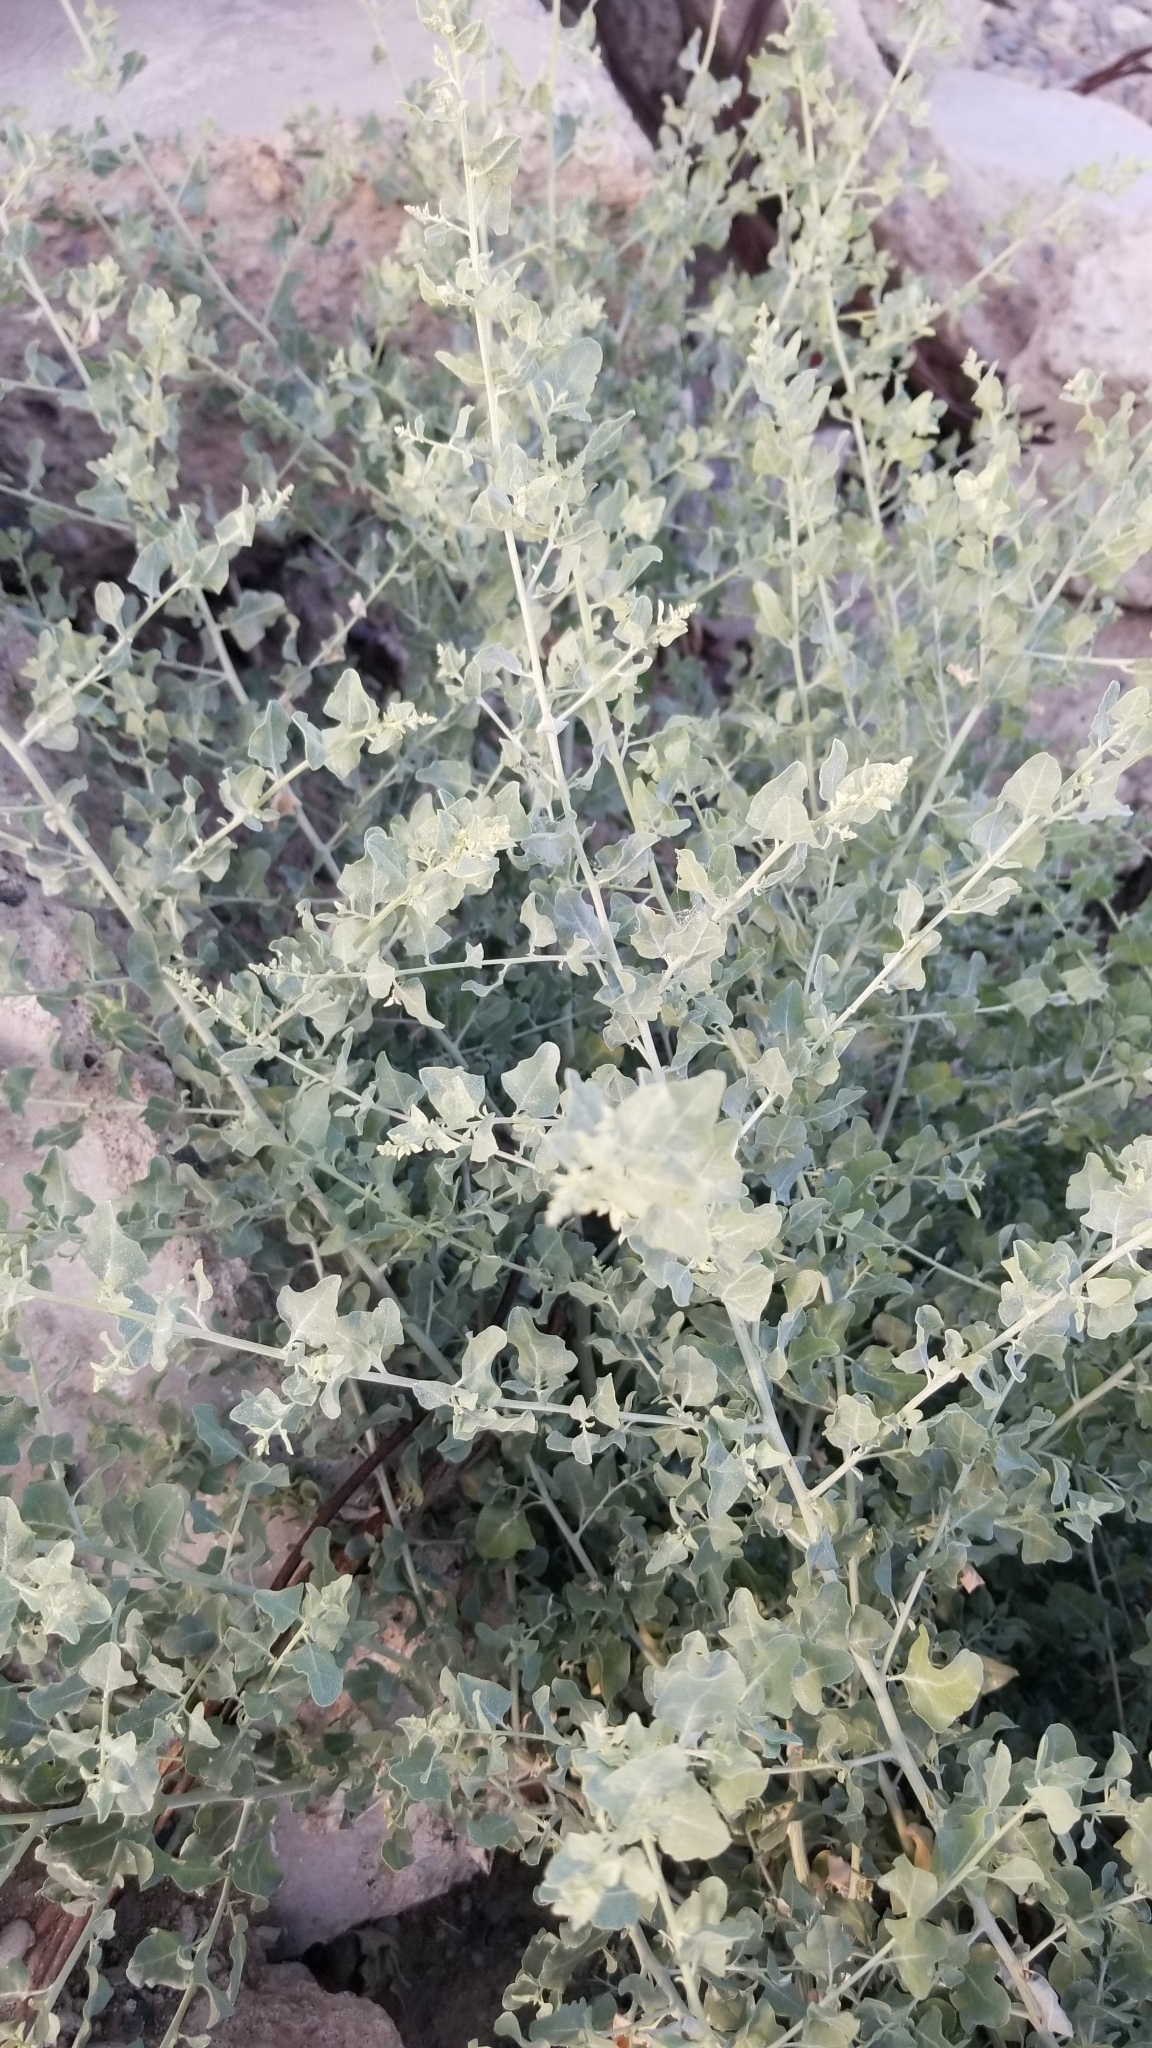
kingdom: Plantae
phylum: Tracheophyta
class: Magnoliopsida
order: Caryophyllales
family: Amaranthaceae
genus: Atriplex
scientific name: Atriplex lentiformis
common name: Big saltbush
